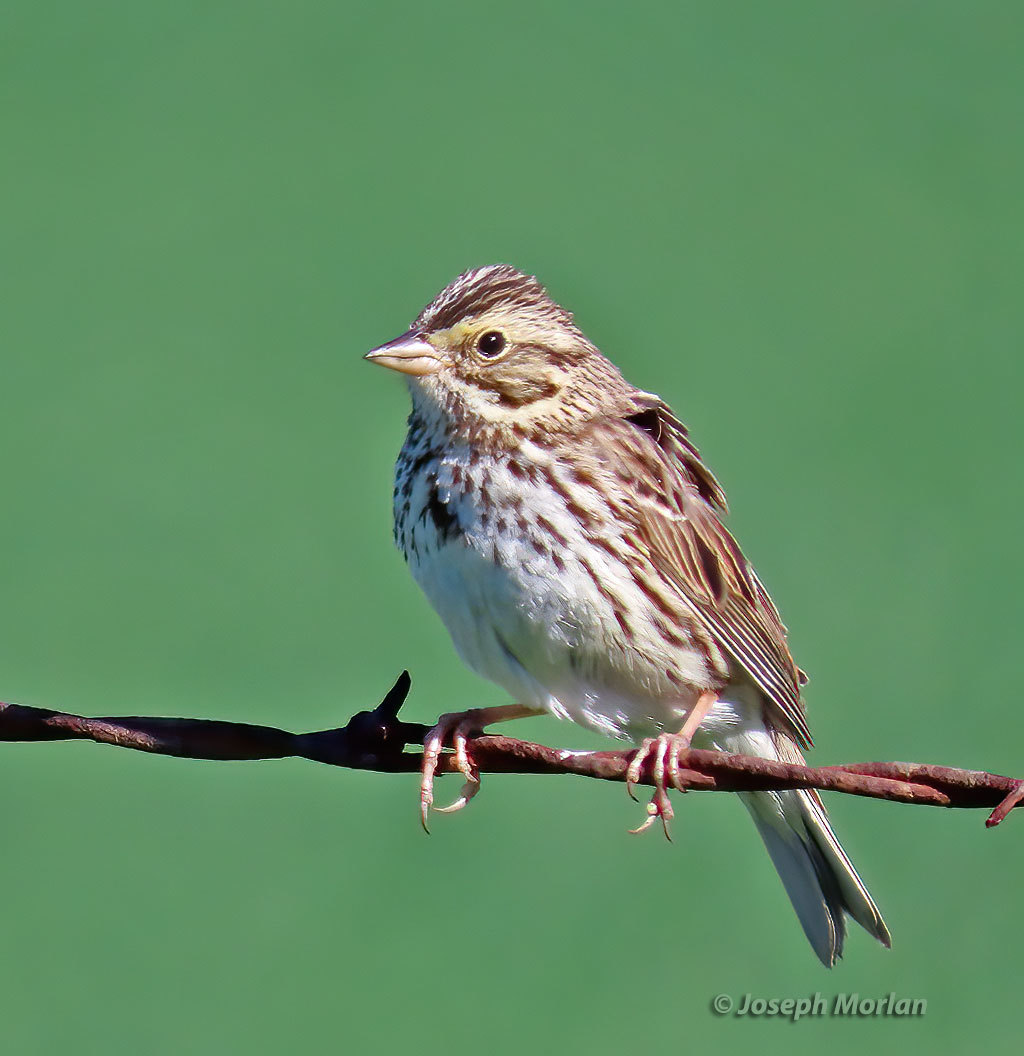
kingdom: Animalia
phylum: Chordata
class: Aves
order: Passeriformes
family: Passerellidae
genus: Passerculus
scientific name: Passerculus sandwichensis
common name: Savannah sparrow
